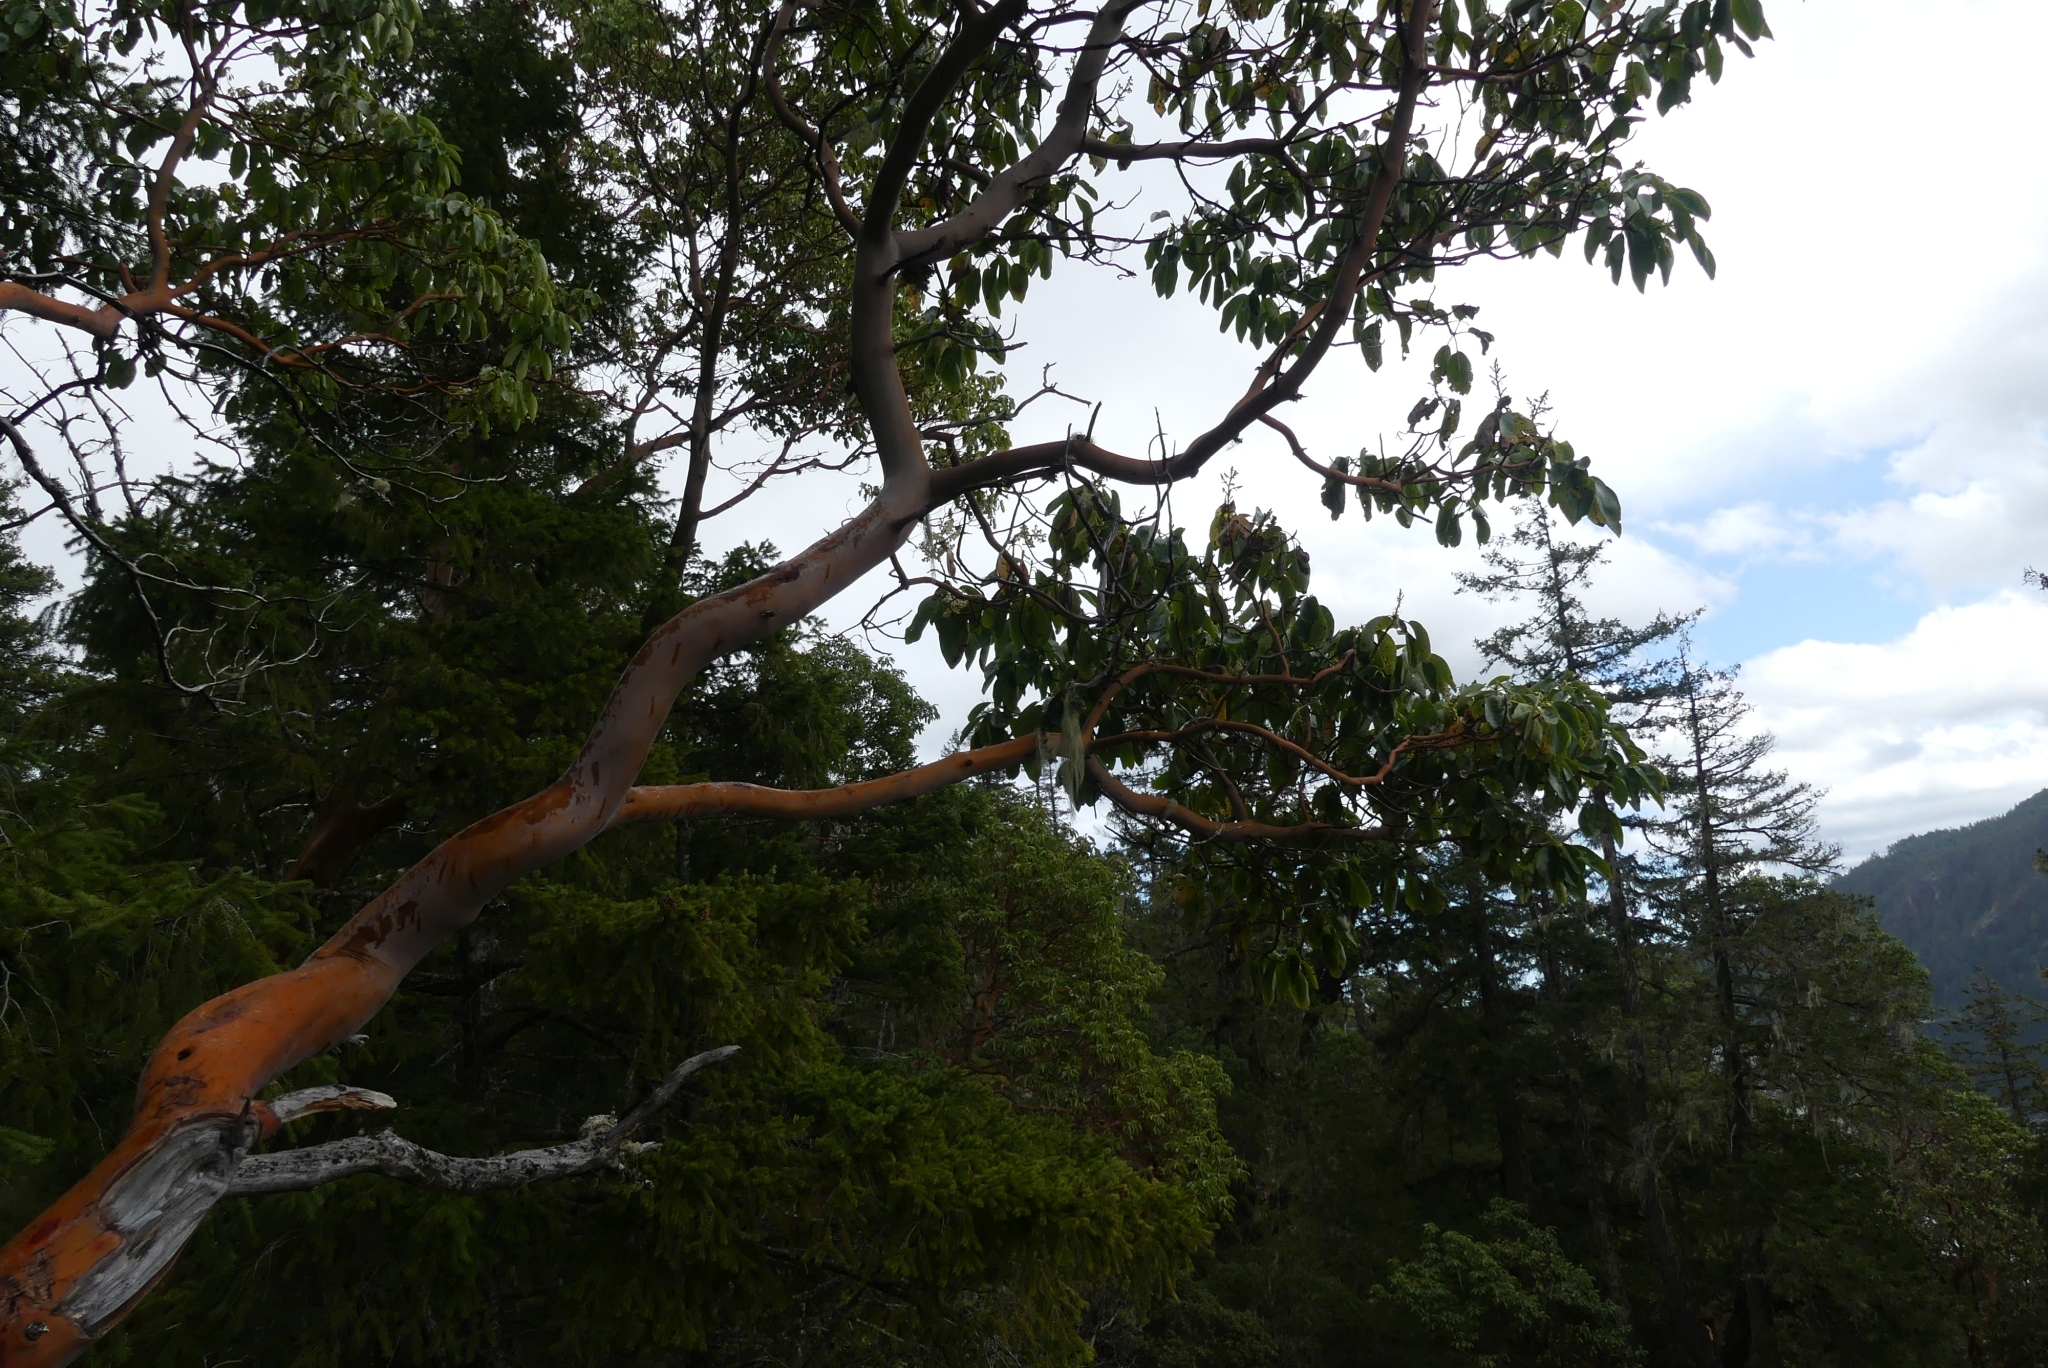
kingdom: Plantae
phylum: Tracheophyta
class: Magnoliopsida
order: Ericales
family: Ericaceae
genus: Arbutus
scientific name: Arbutus menziesii
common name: Pacific madrone
